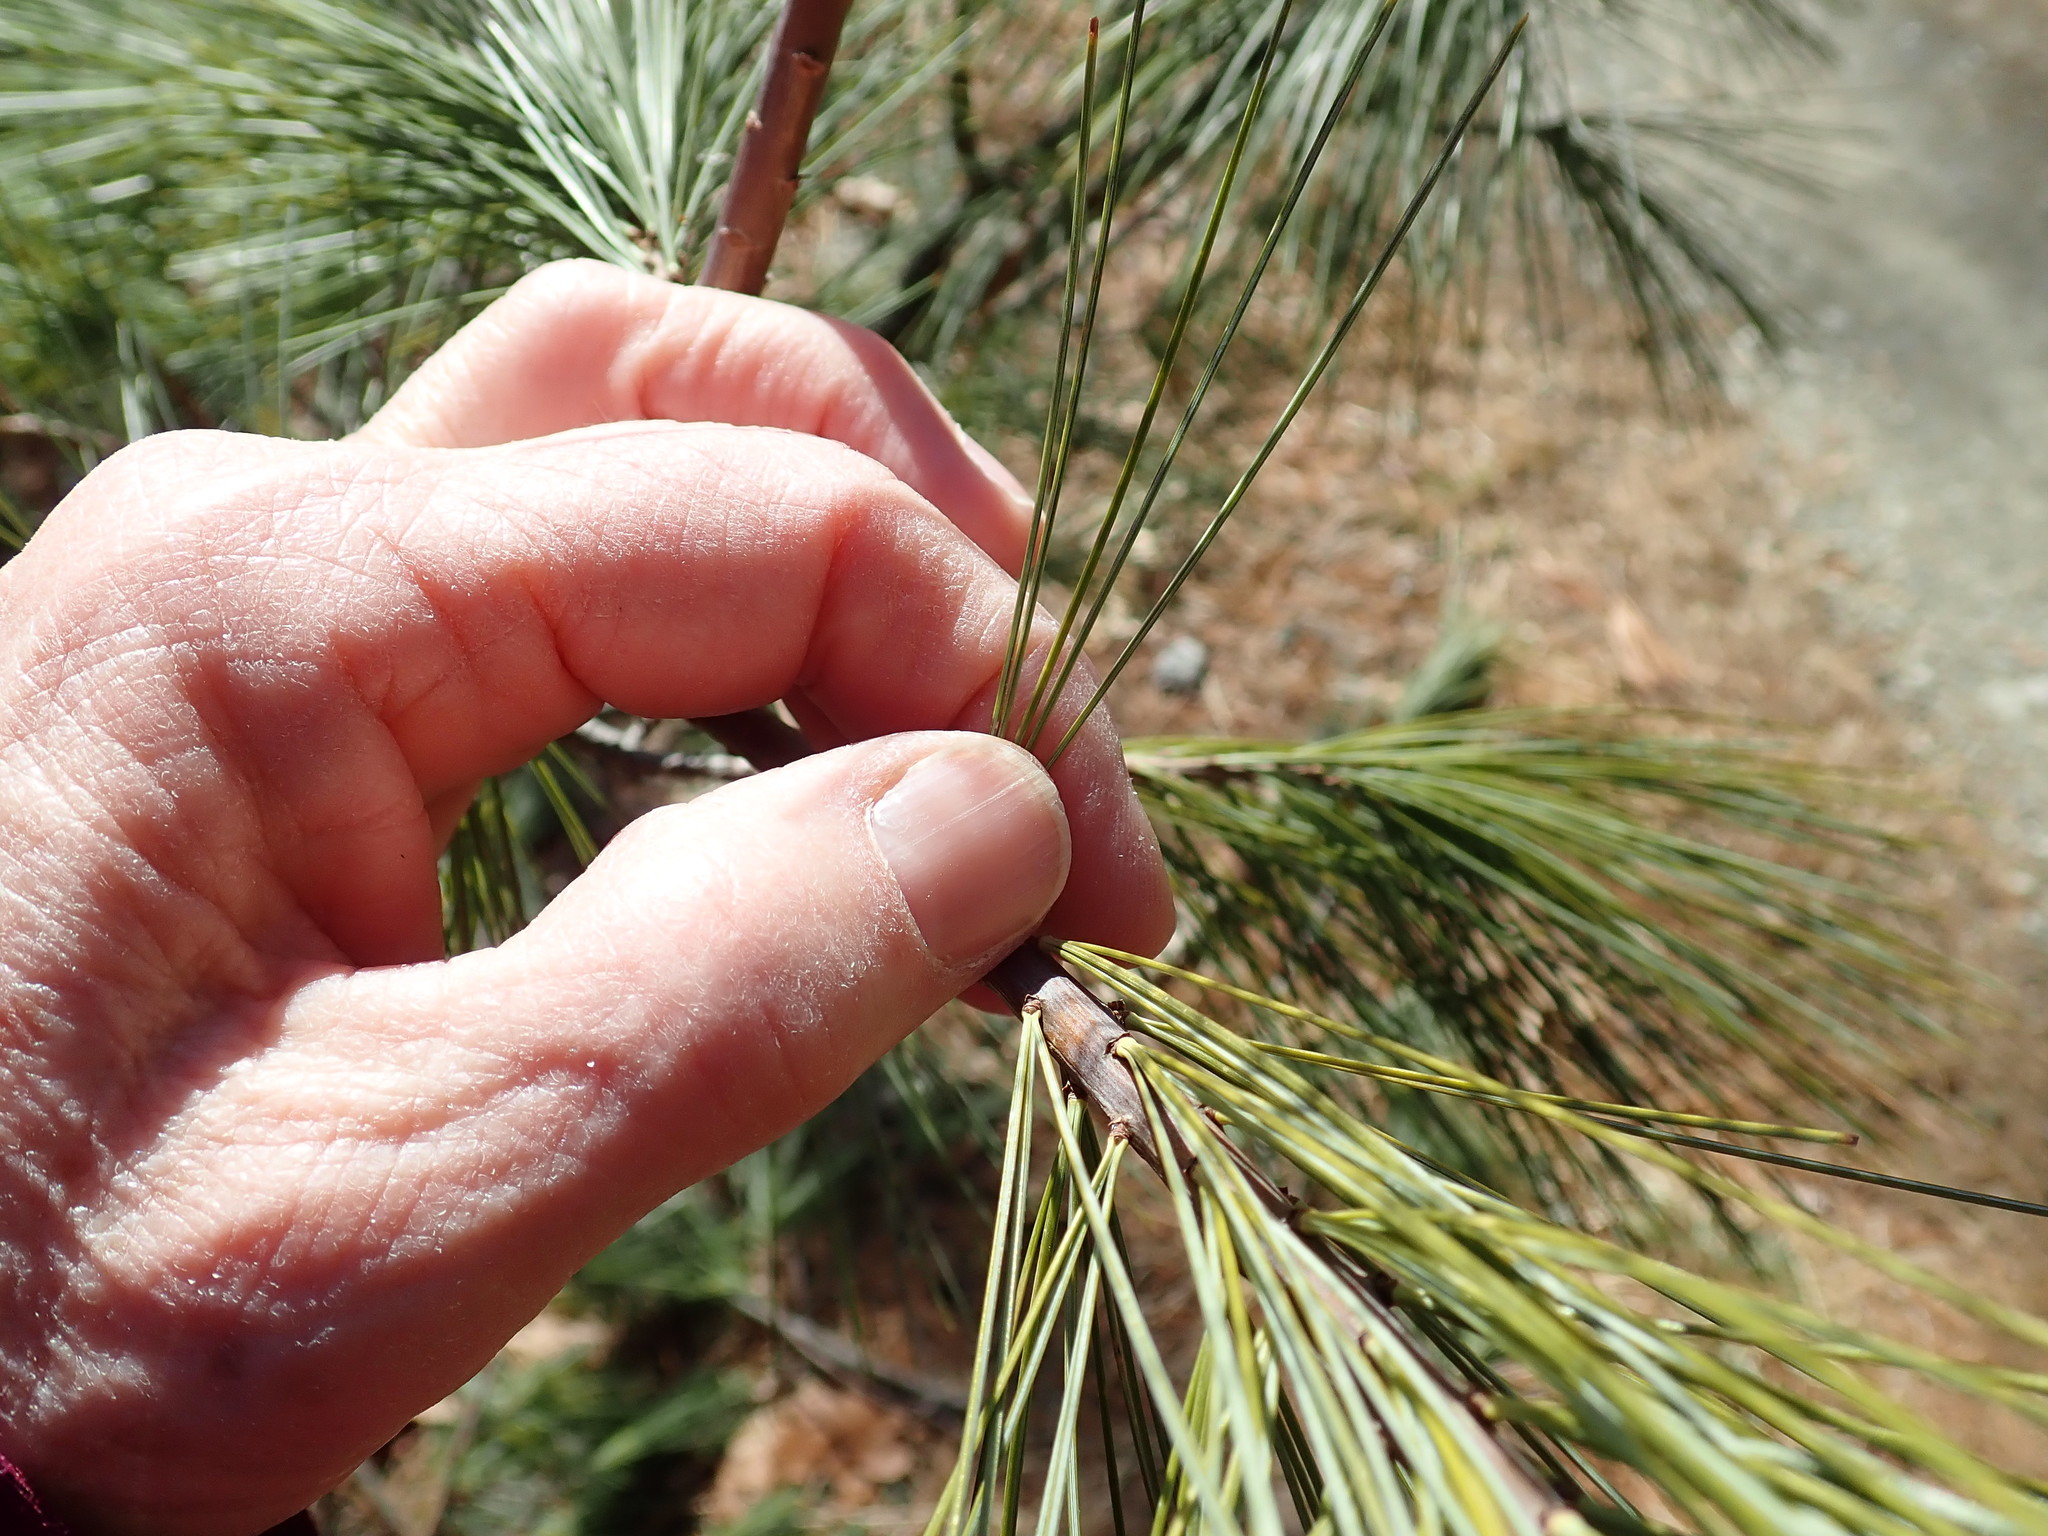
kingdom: Plantae
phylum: Tracheophyta
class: Pinopsida
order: Pinales
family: Pinaceae
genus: Pinus
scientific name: Pinus strobus
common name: Weymouth pine
